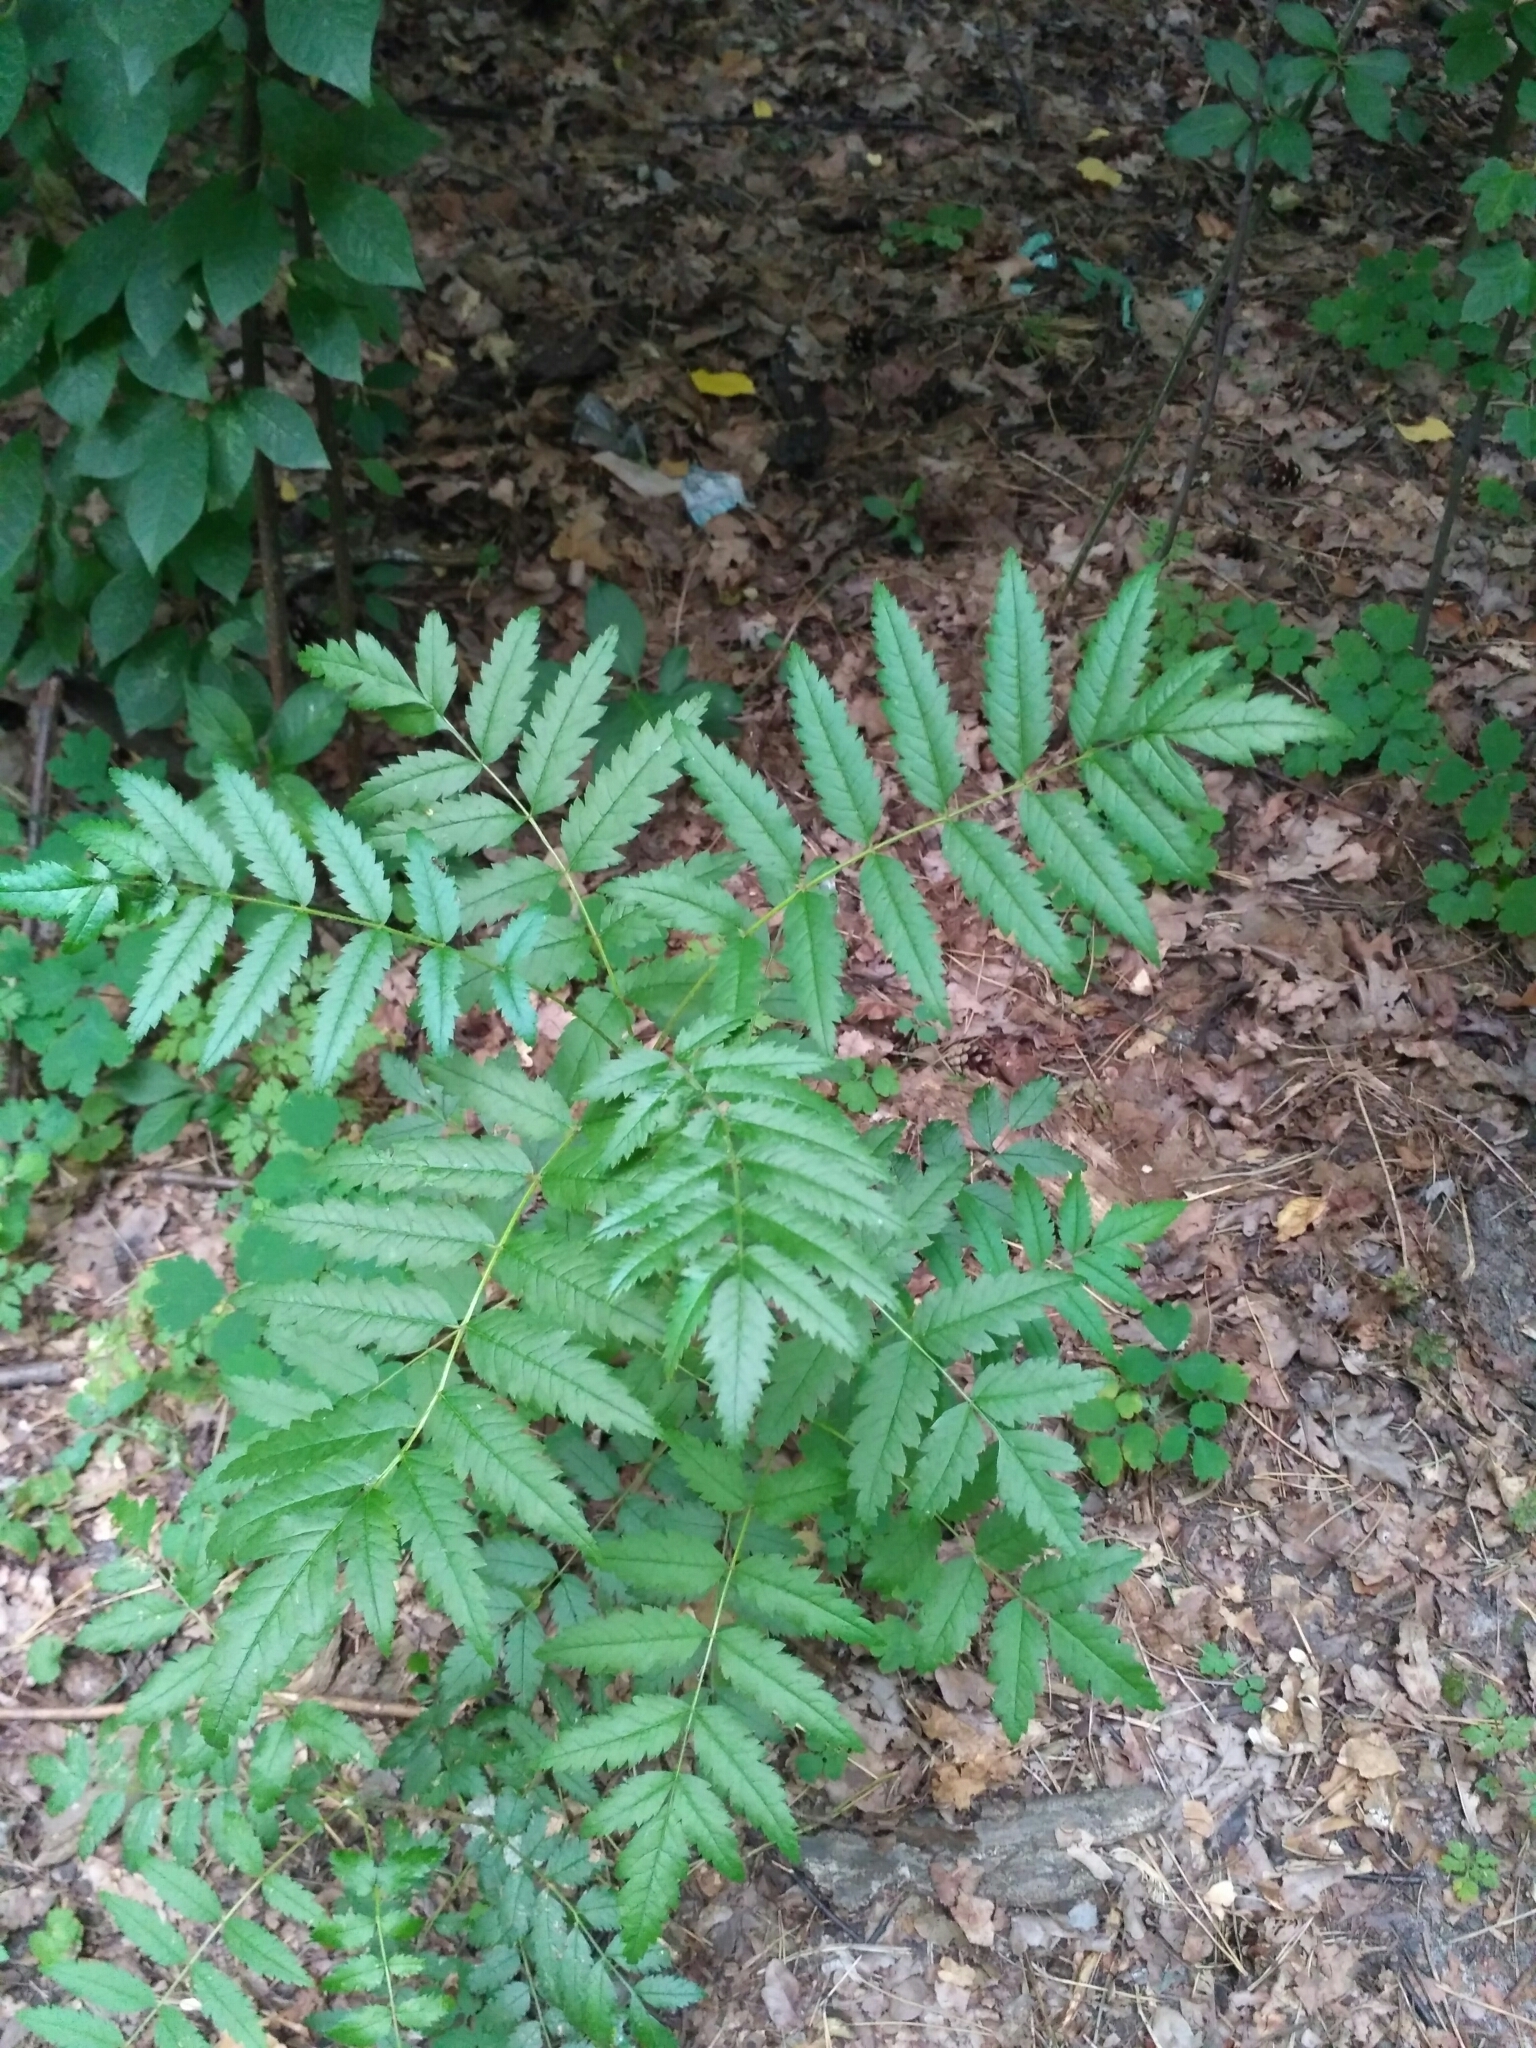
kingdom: Plantae
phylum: Tracheophyta
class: Magnoliopsida
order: Rosales
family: Rosaceae
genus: Sorbus
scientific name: Sorbus aucuparia
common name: Rowan
